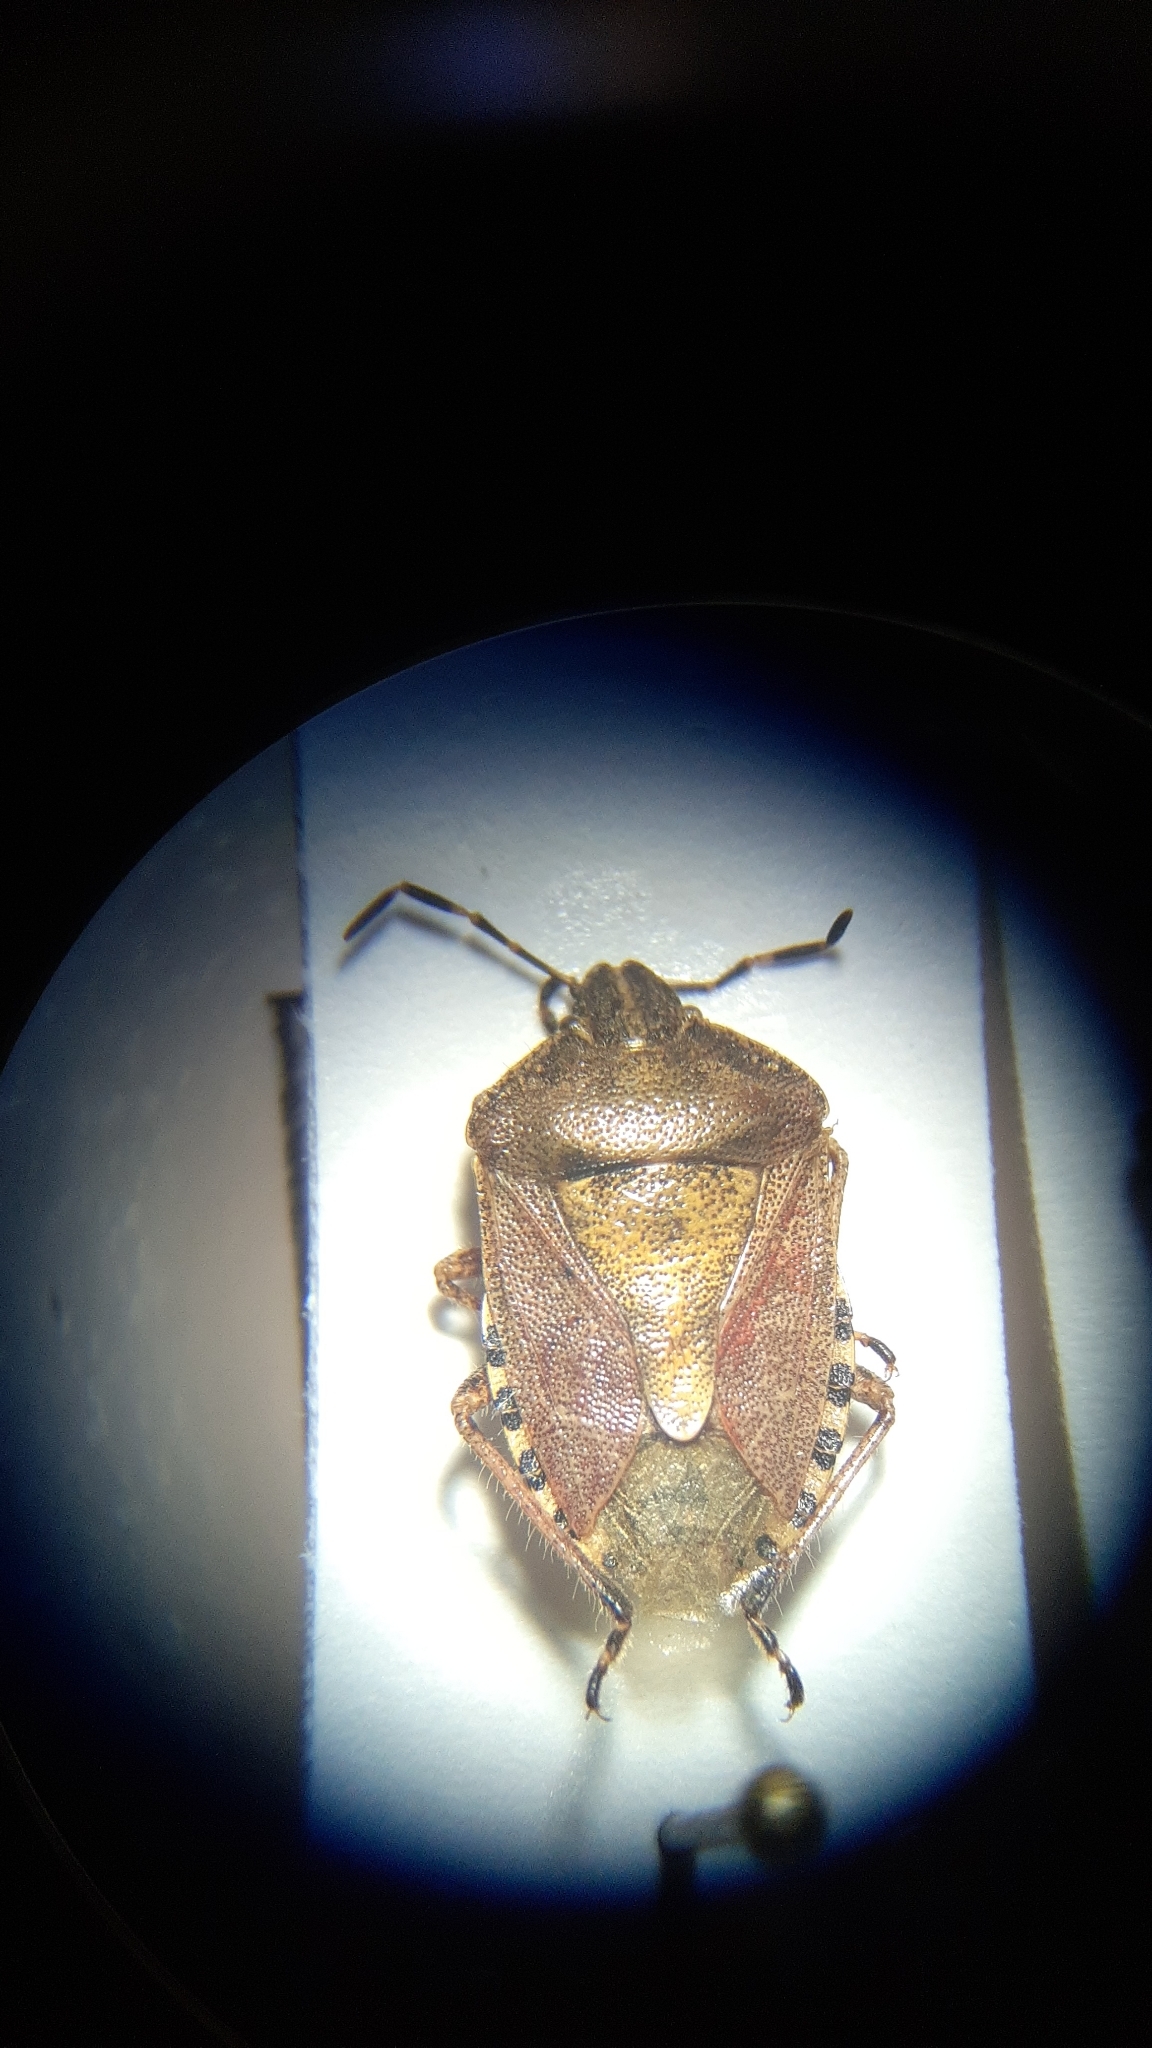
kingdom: Animalia
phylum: Arthropoda
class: Insecta
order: Hemiptera
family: Pentatomidae
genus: Dolycoris
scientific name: Dolycoris baccarum
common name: Sloe bug
